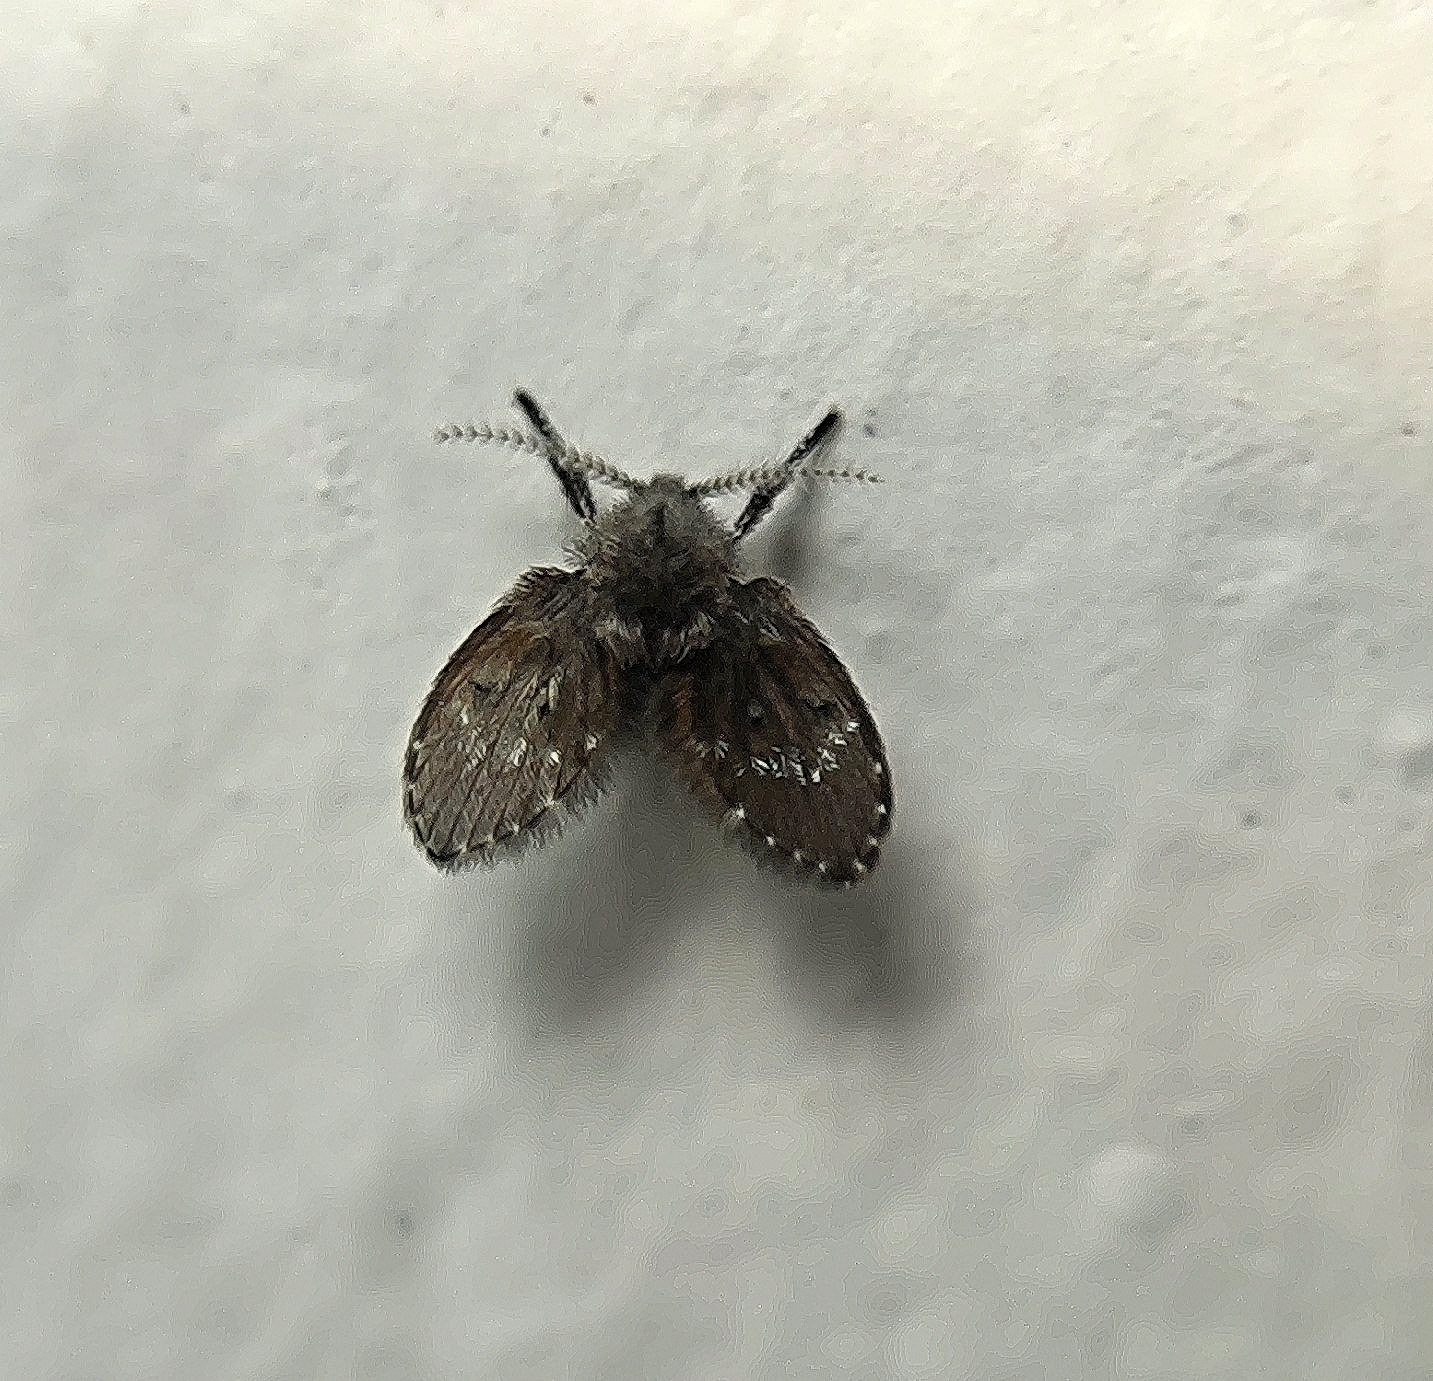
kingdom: Animalia
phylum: Arthropoda
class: Insecta
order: Diptera
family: Psychodidae
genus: Clogmia
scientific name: Clogmia albipunctatus
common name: White-spotted moth fly
